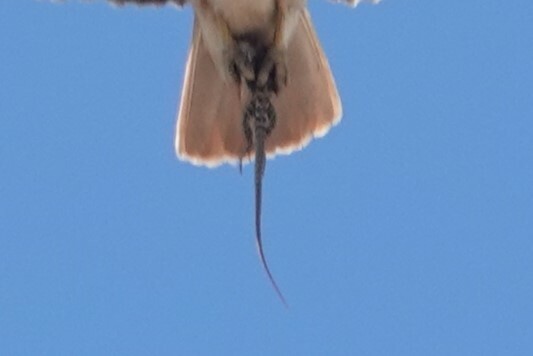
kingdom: Animalia
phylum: Chordata
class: Squamata
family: Teiidae
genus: Aspidoscelis
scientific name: Aspidoscelis tigris
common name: Tiger whiptail
